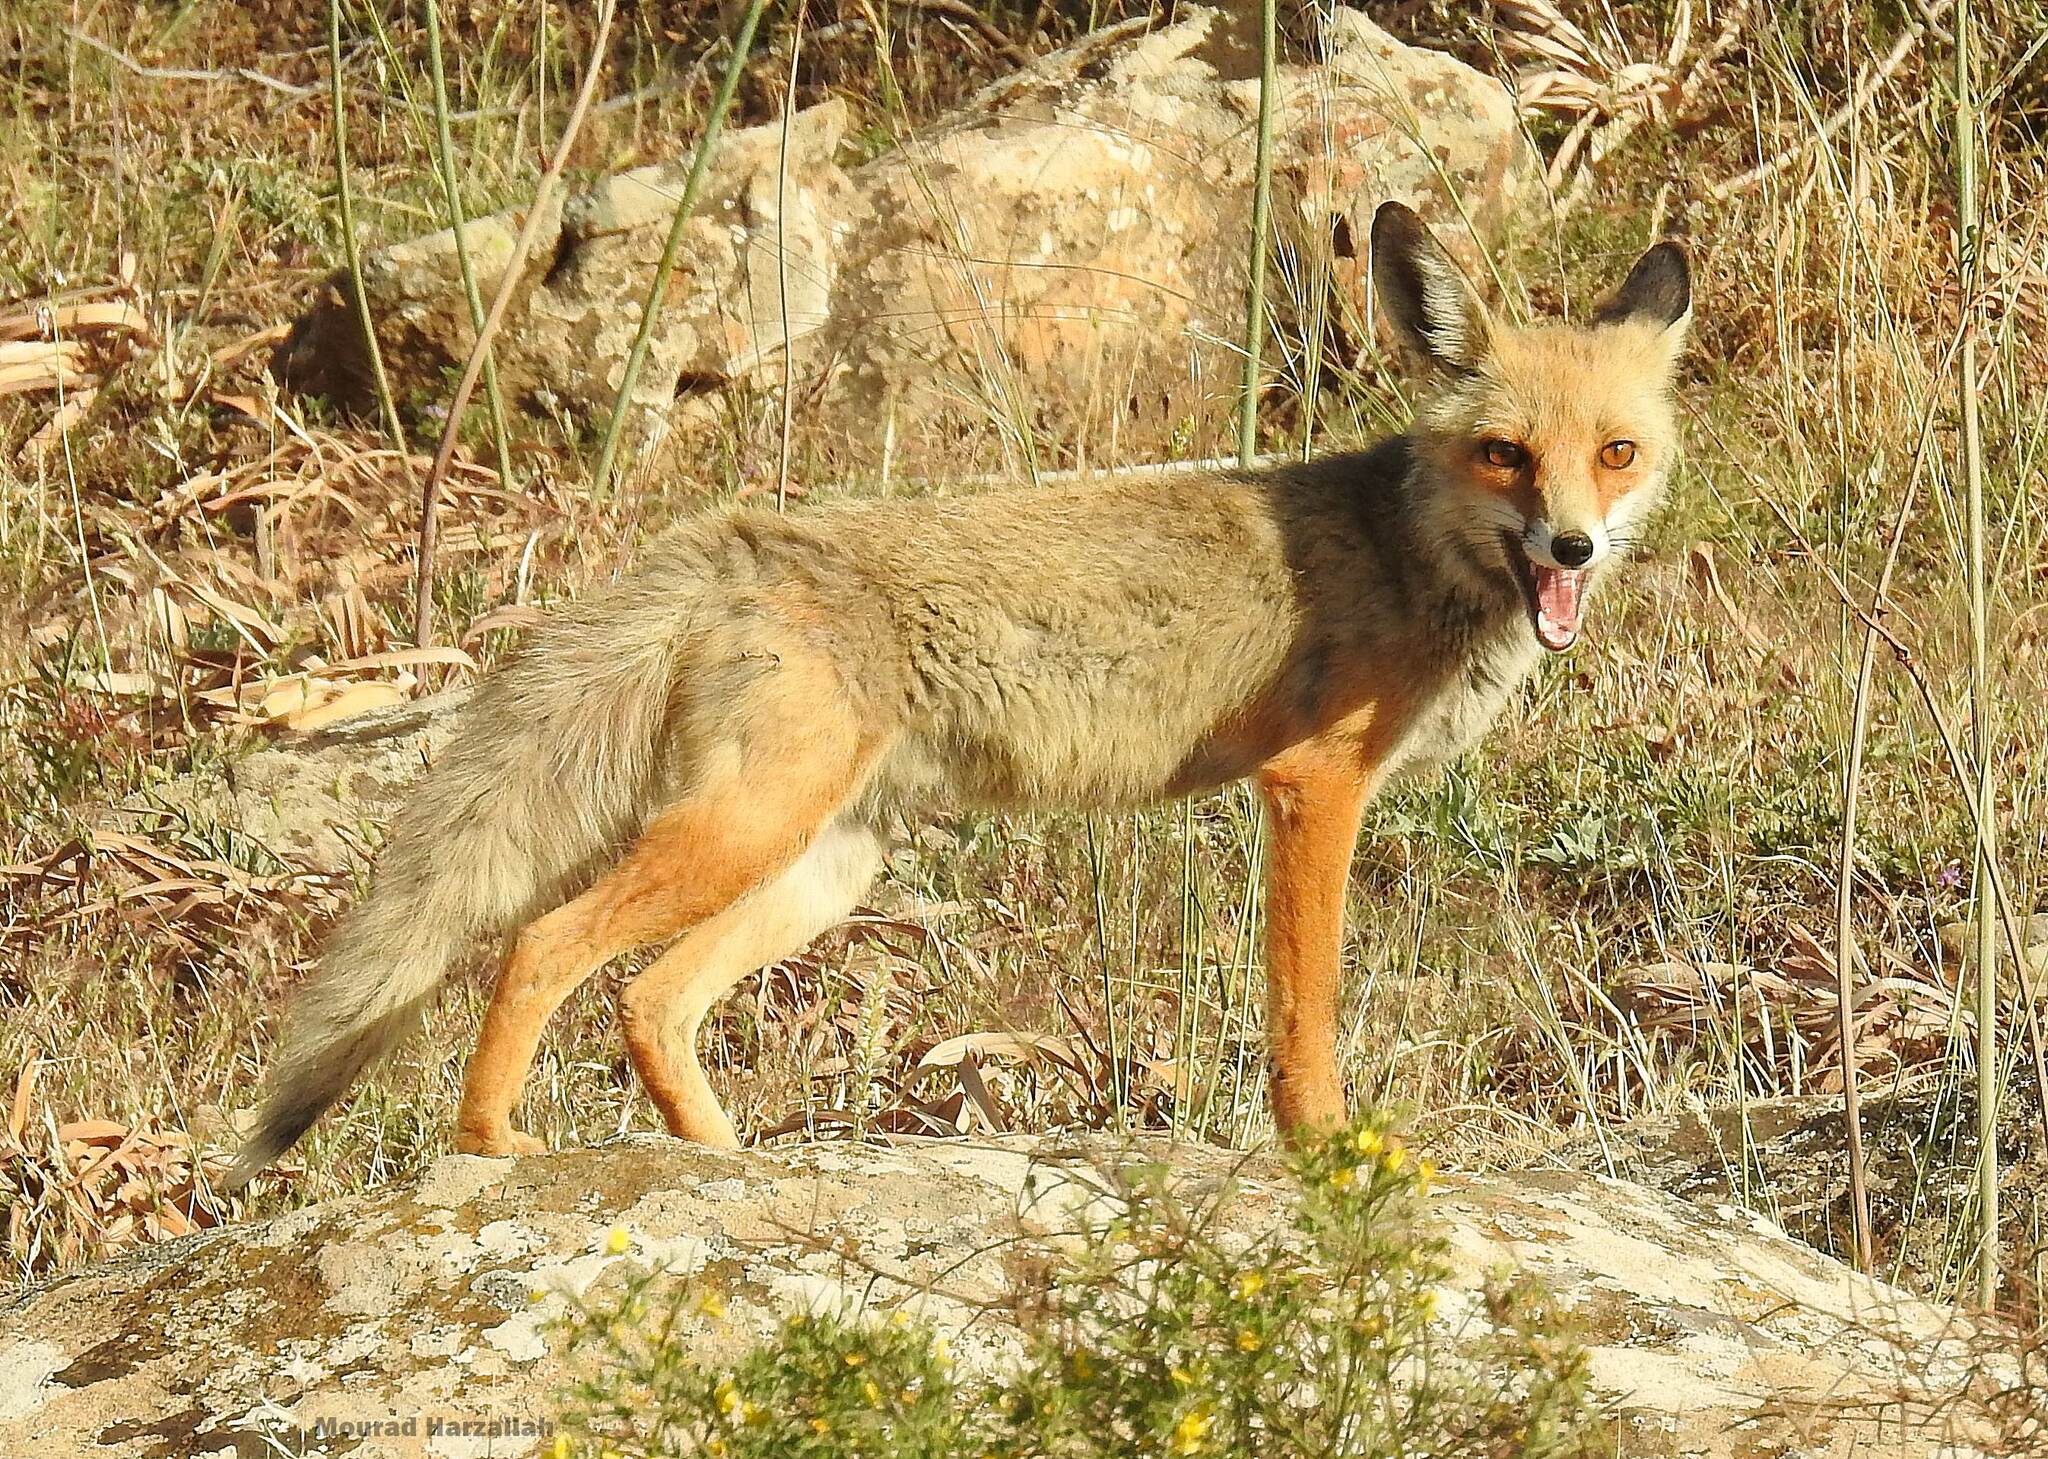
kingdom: Animalia
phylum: Chordata
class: Mammalia
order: Carnivora
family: Canidae
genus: Vulpes
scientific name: Vulpes vulpes
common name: Red fox
